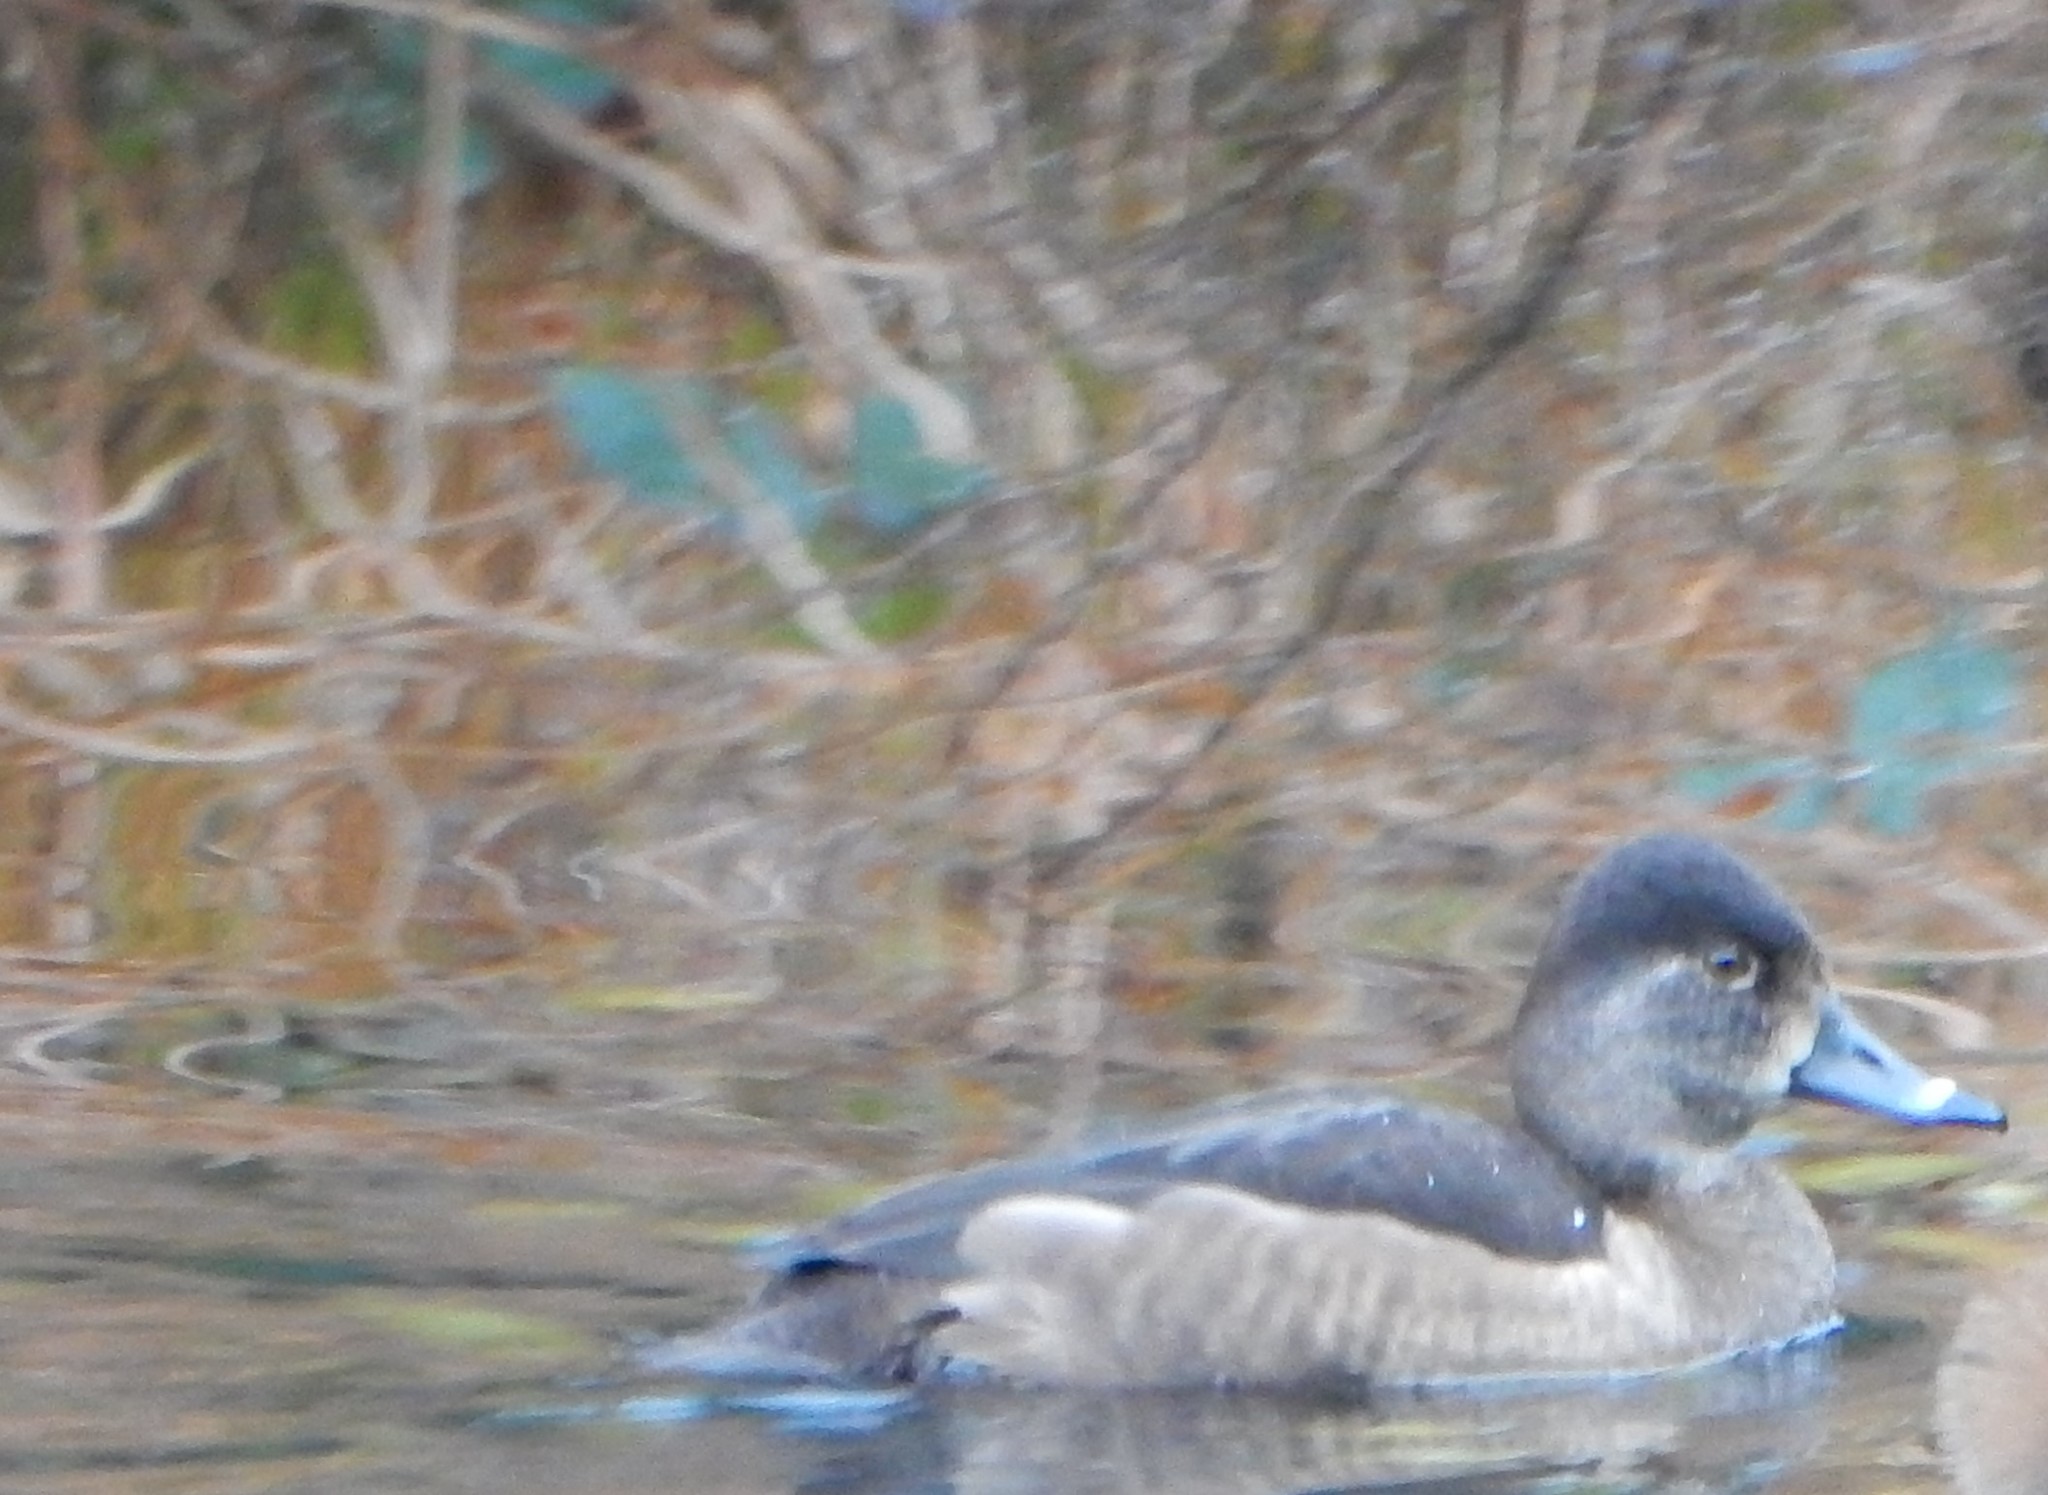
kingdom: Animalia
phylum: Chordata
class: Aves
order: Anseriformes
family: Anatidae
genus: Aythya
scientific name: Aythya collaris
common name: Ring-necked duck
